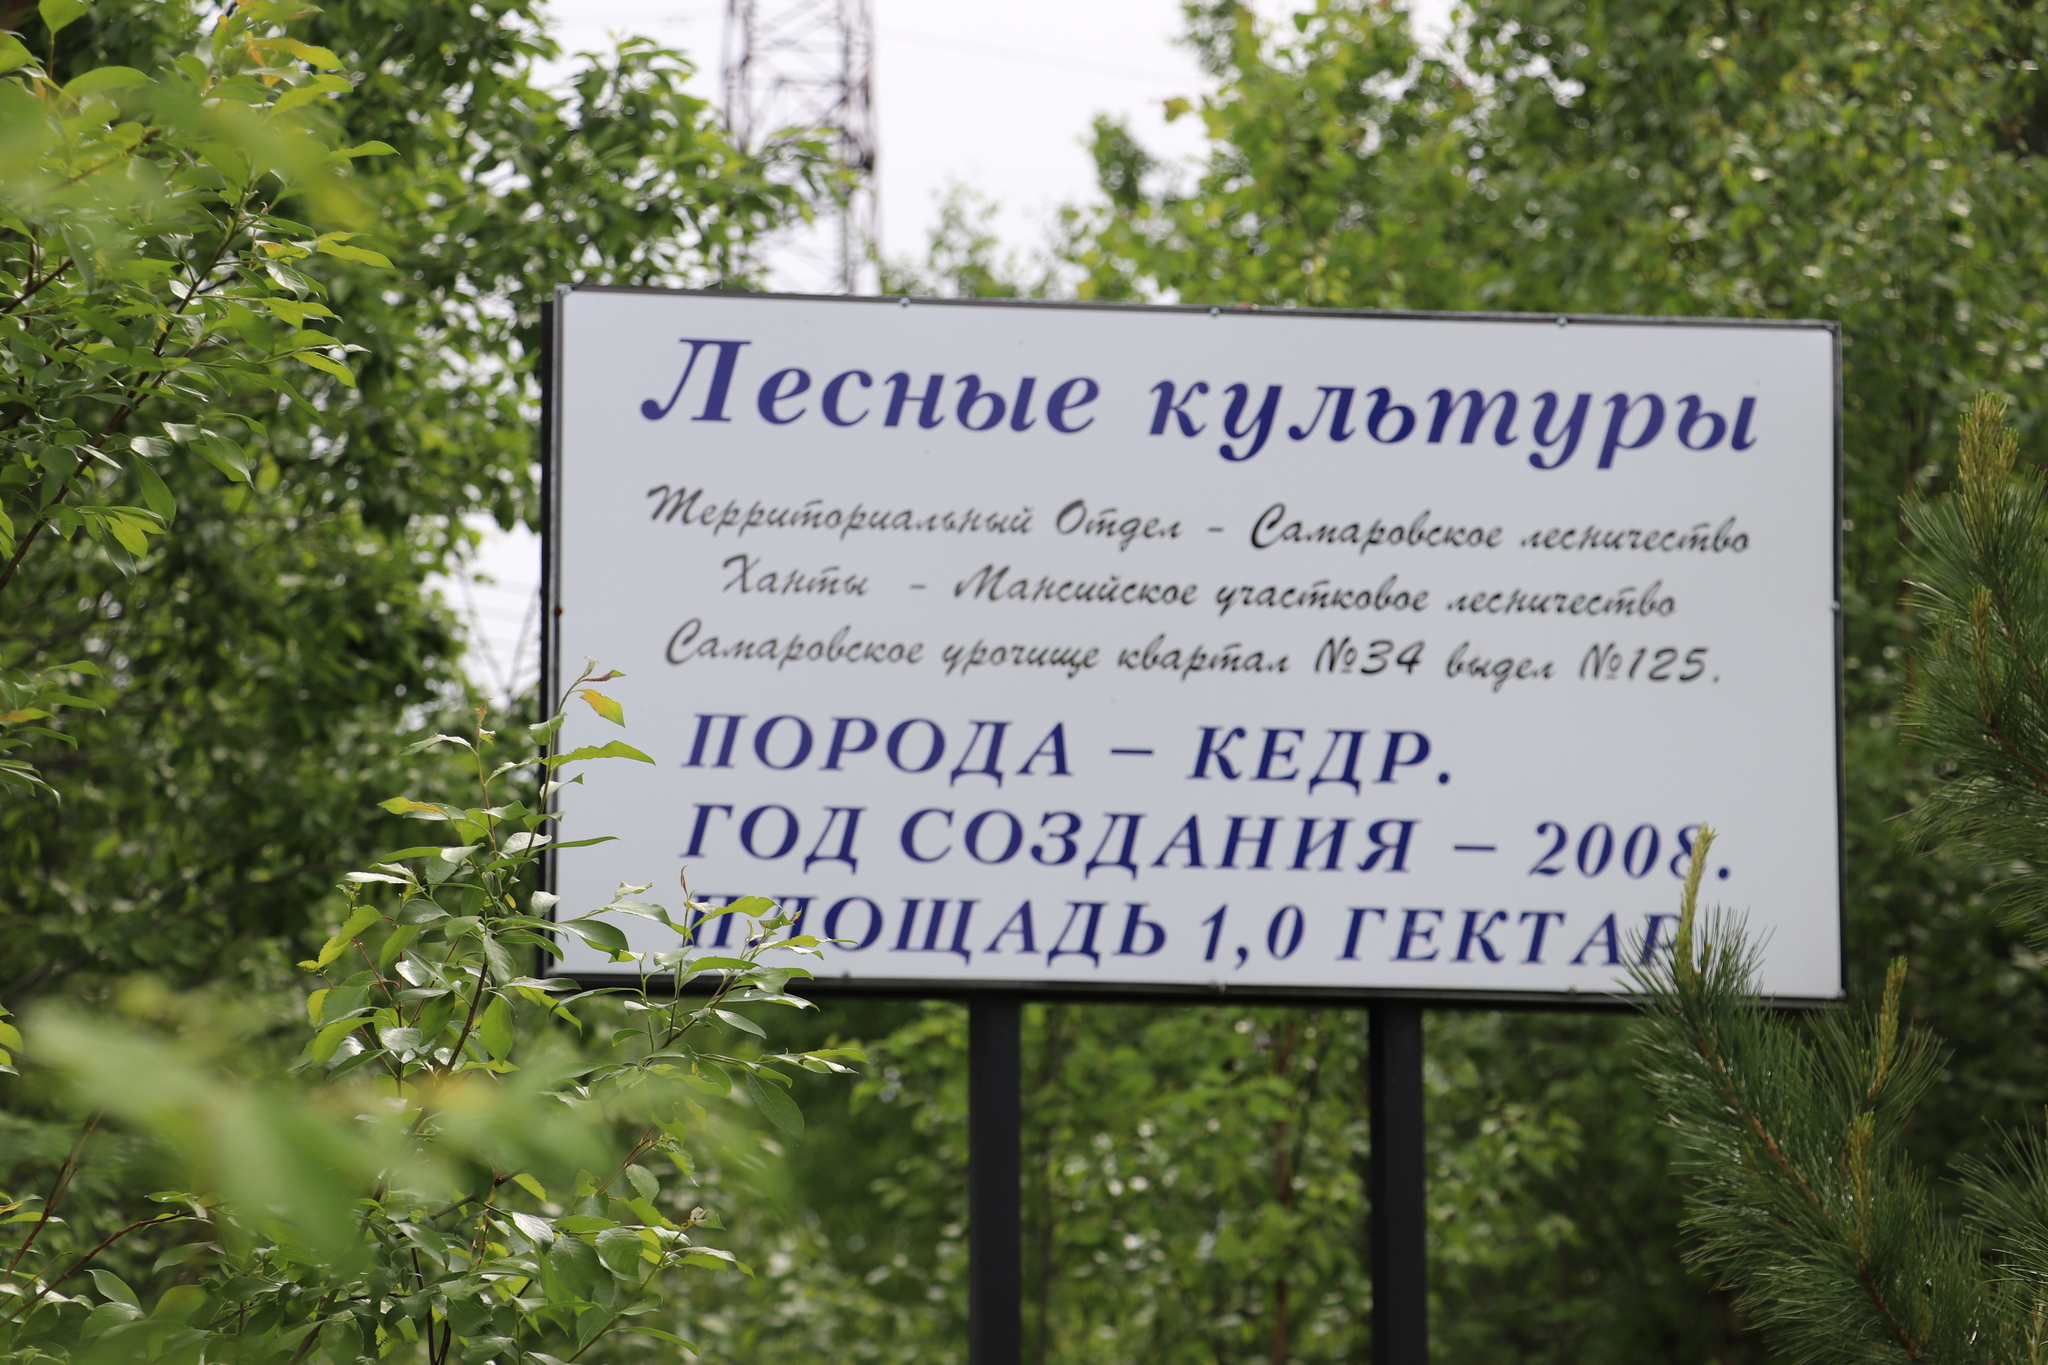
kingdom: Plantae
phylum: Tracheophyta
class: Pinopsida
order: Pinales
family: Pinaceae
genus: Pinus
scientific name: Pinus sibirica
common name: Siberian pine
